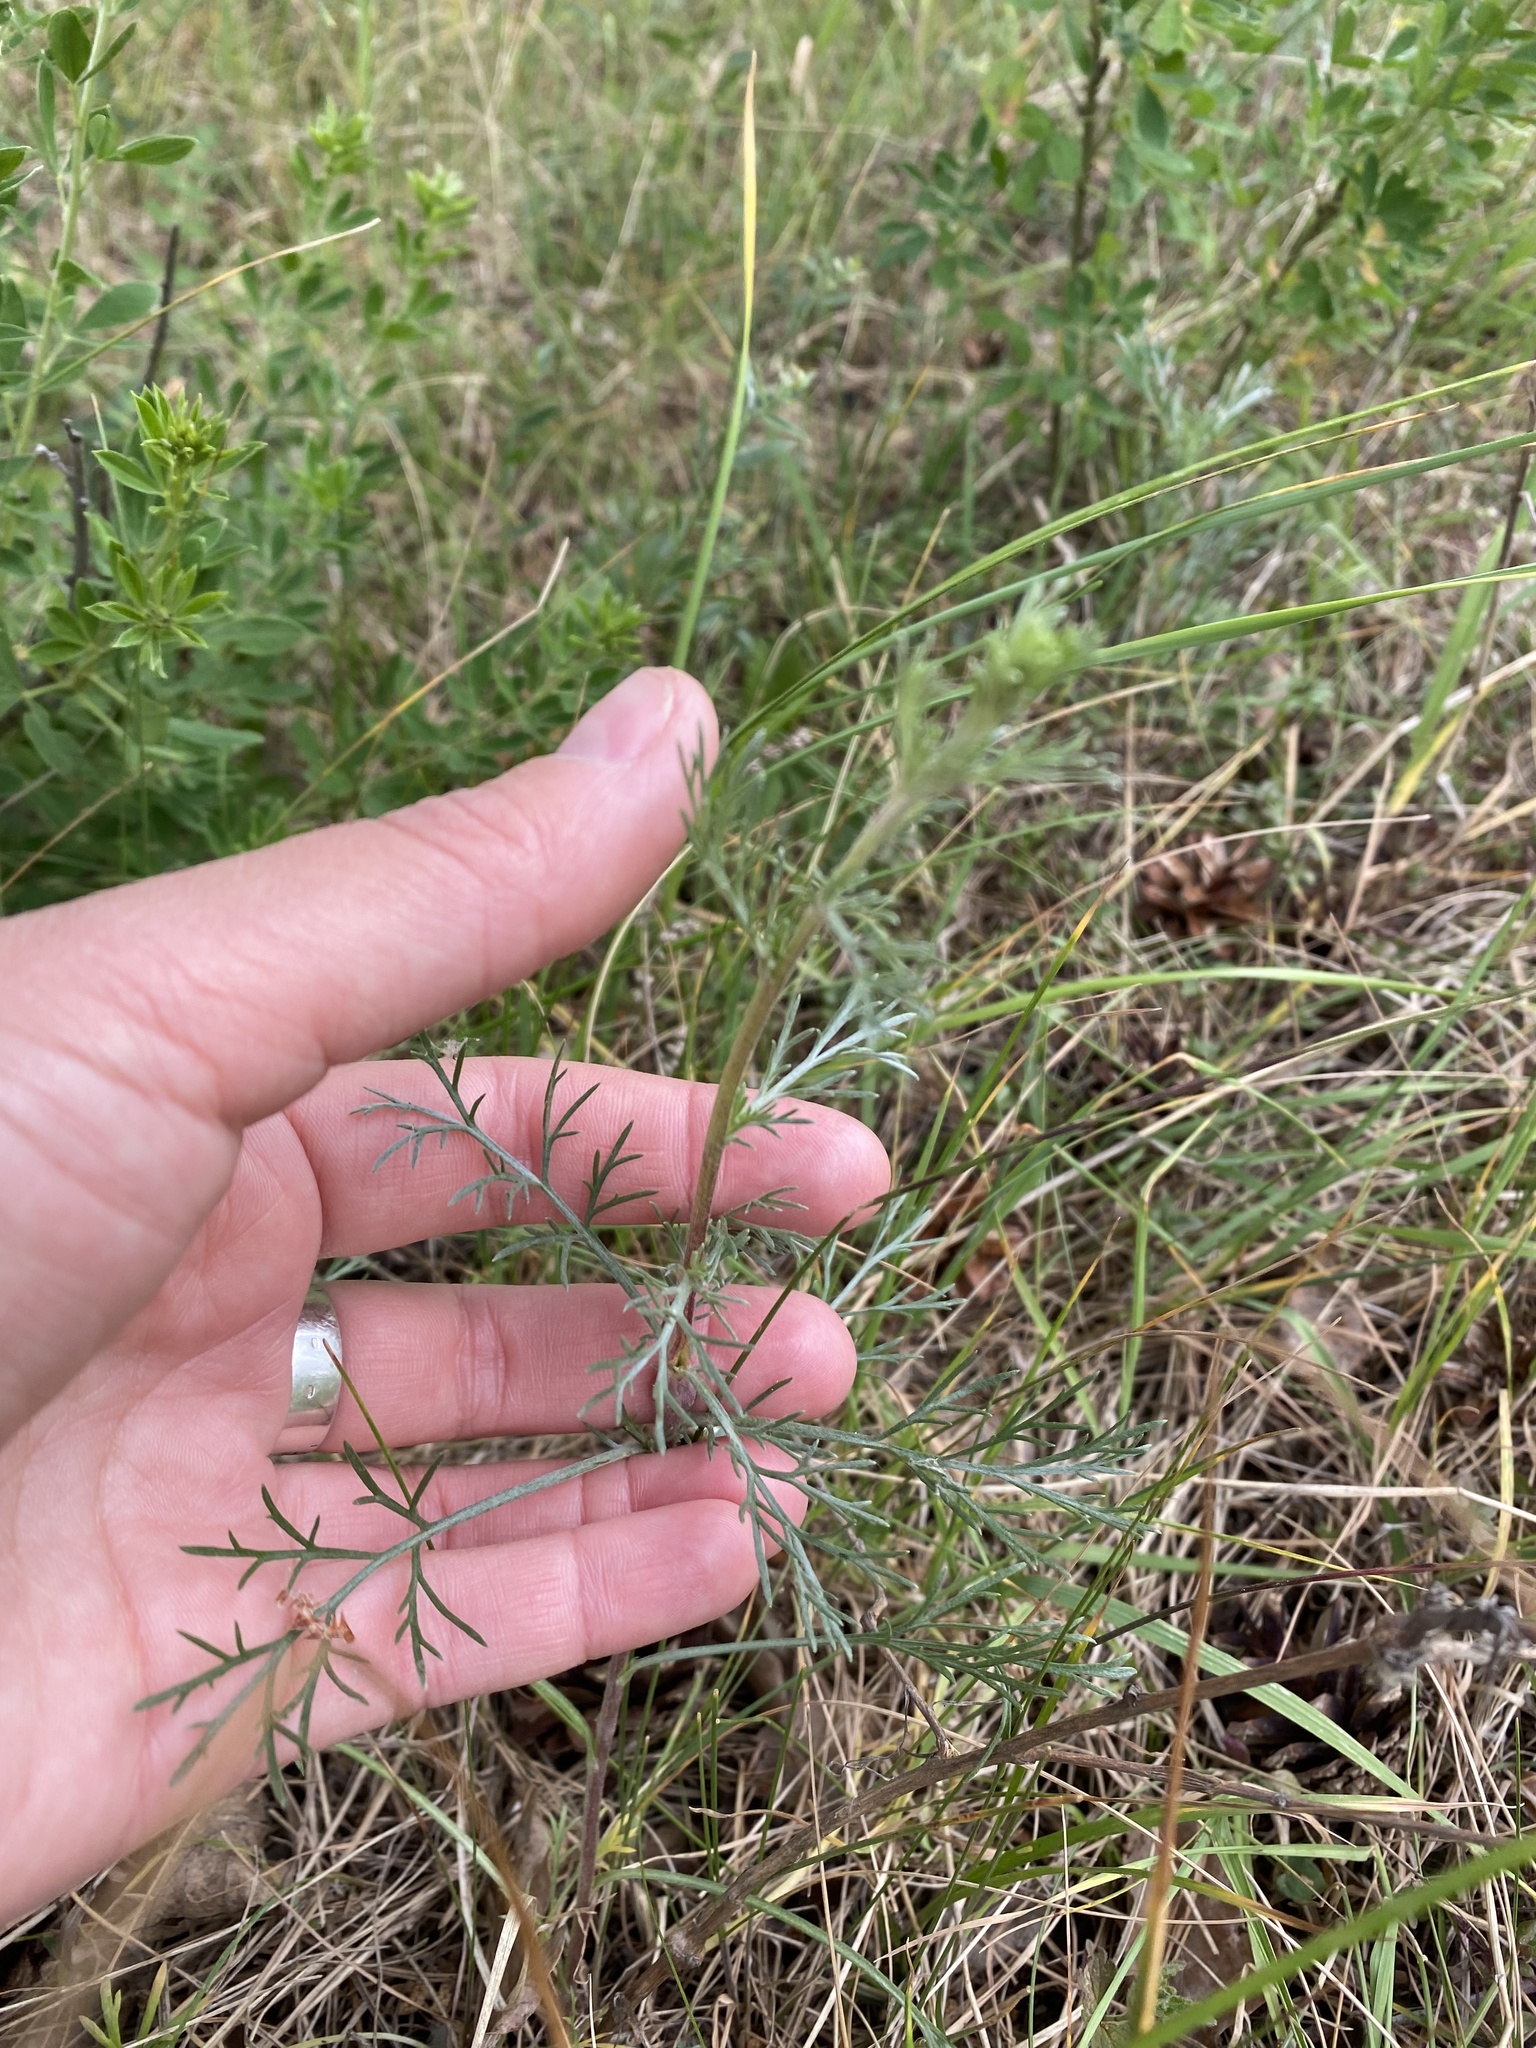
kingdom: Plantae
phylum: Tracheophyta
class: Magnoliopsida
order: Asterales
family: Asteraceae
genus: Artemisia
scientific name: Artemisia campestris
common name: Field wormwood
